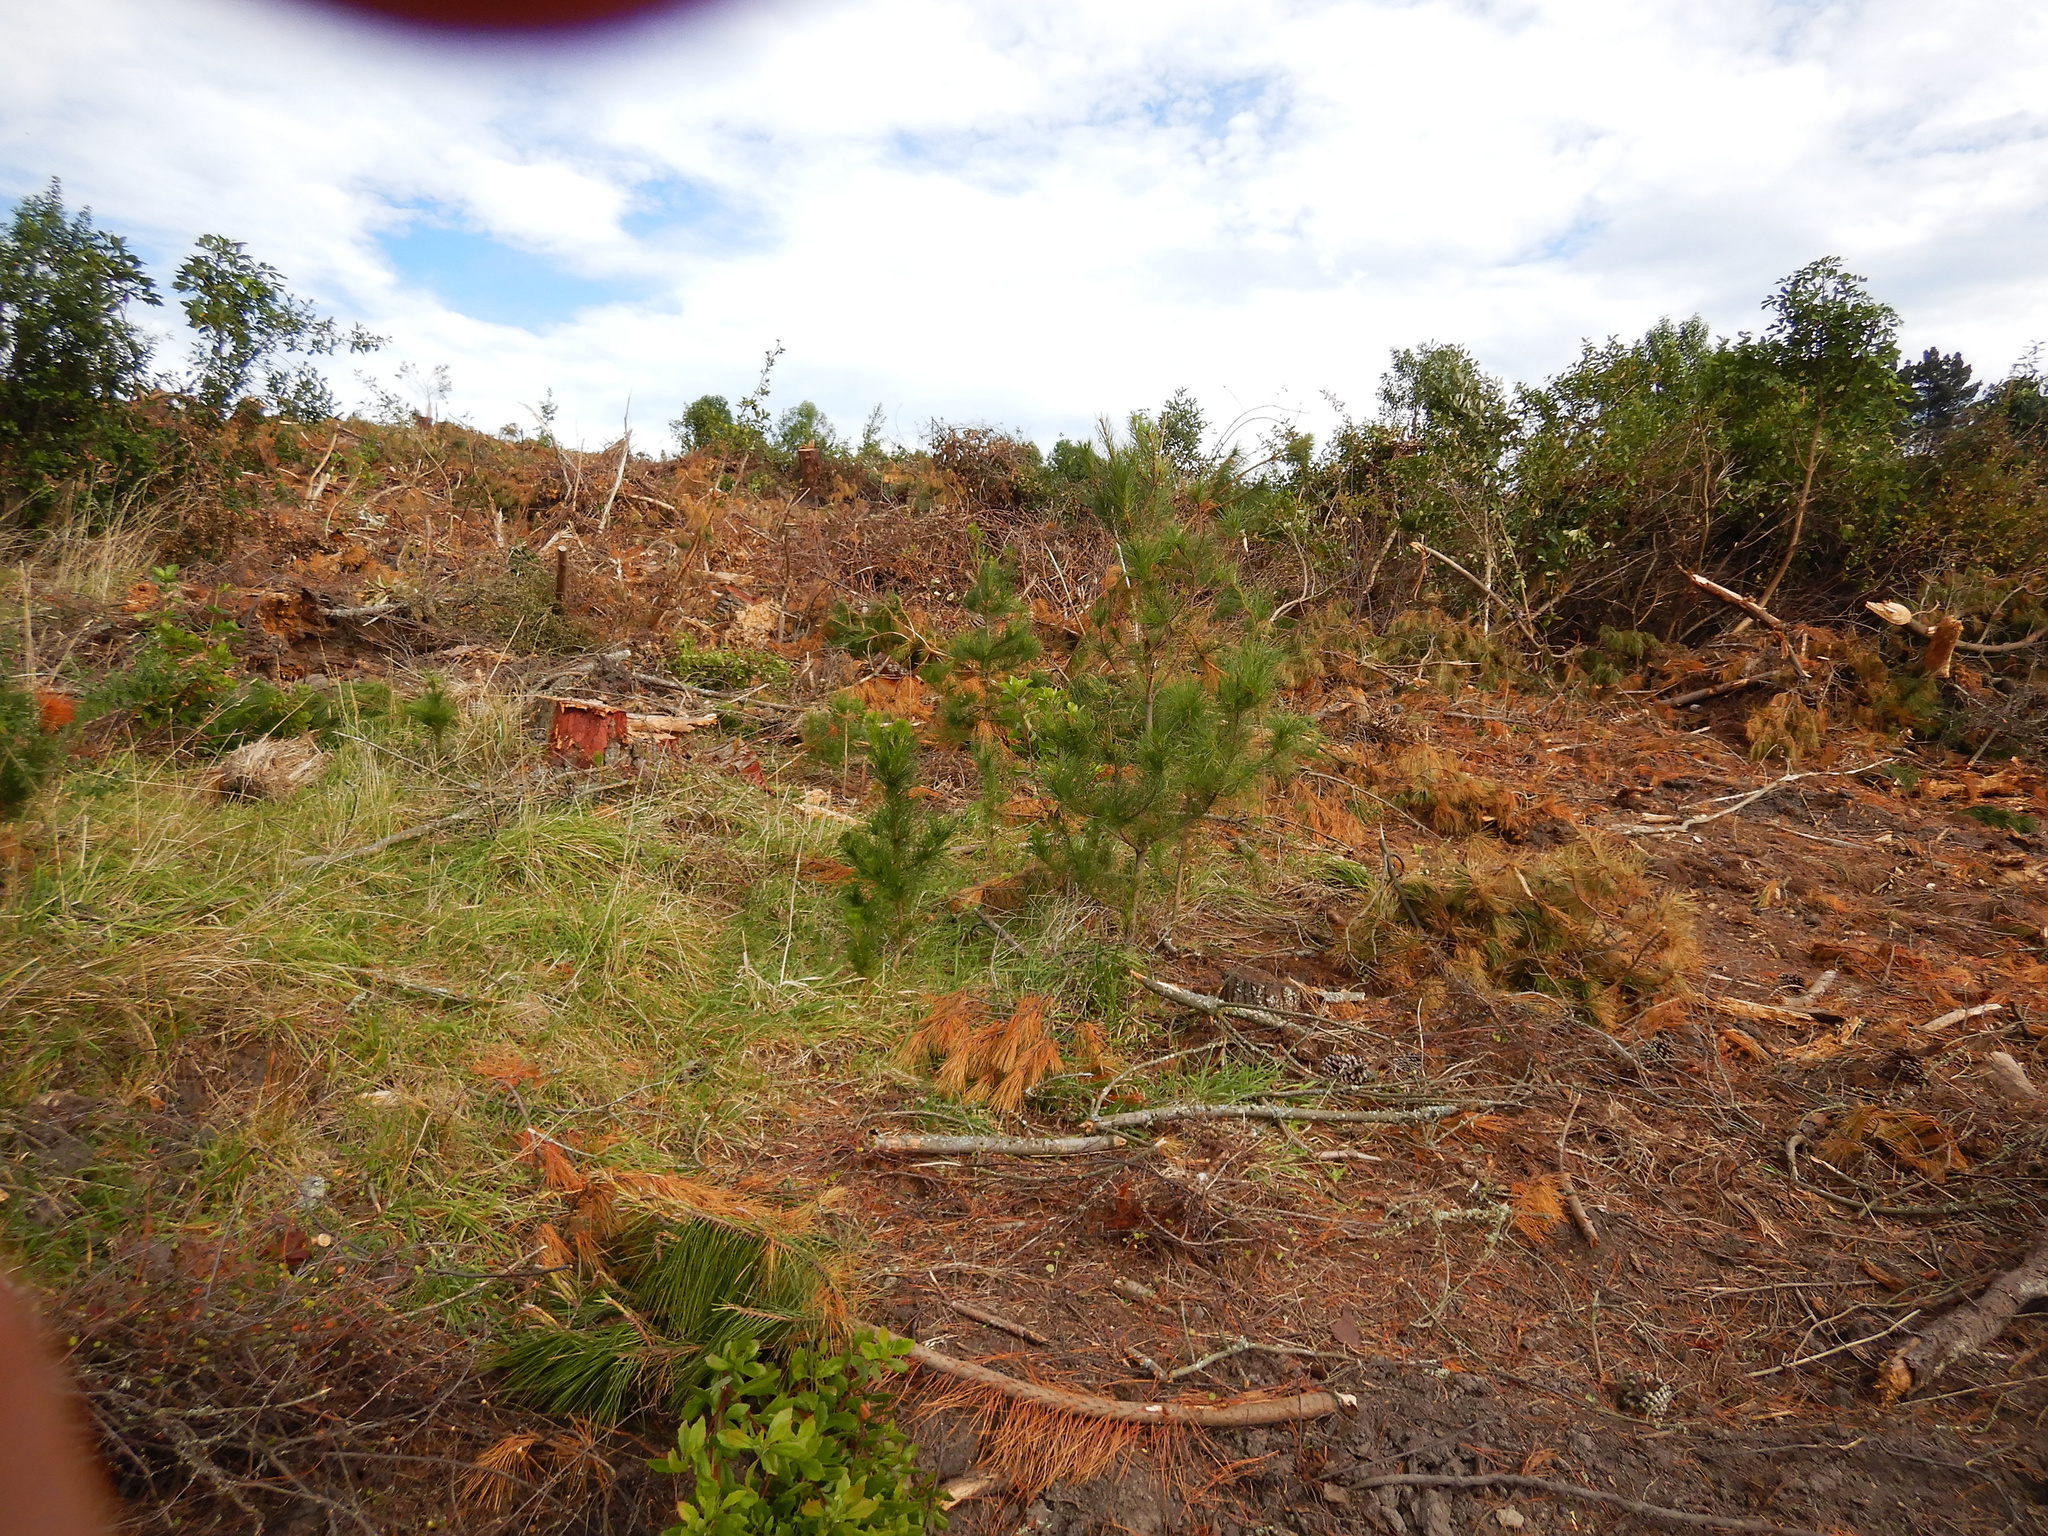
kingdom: Plantae
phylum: Tracheophyta
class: Pinopsida
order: Pinales
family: Pinaceae
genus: Pinus
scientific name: Pinus radiata
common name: Monterey pine
